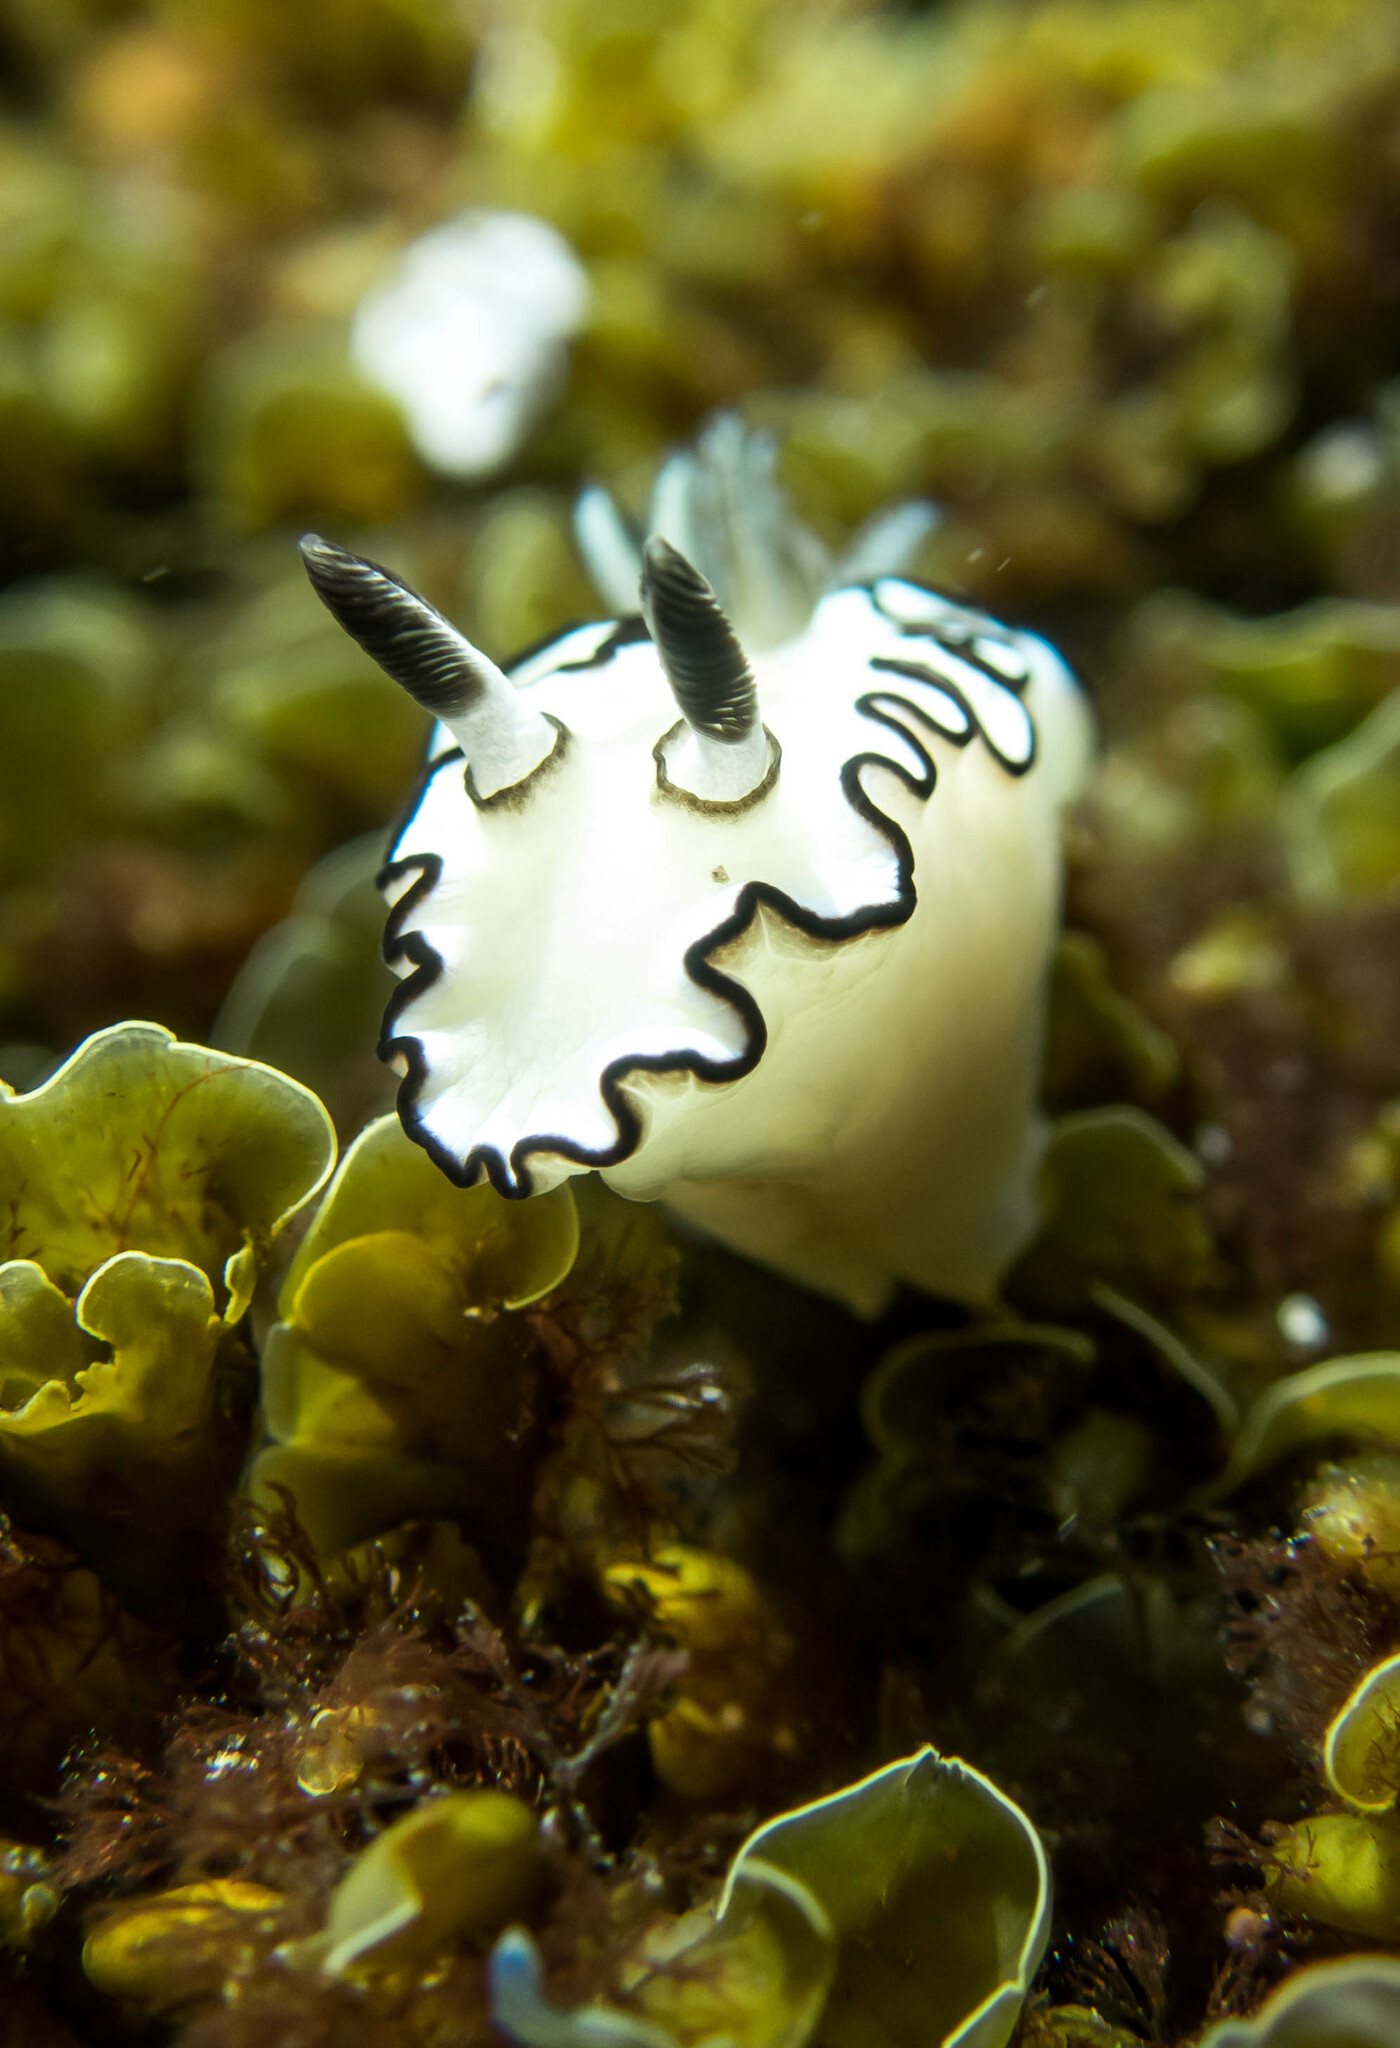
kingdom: Animalia
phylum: Mollusca
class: Gastropoda
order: Nudibranchia
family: Chromodorididae
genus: Doriprismatica
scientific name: Doriprismatica atromarginata
